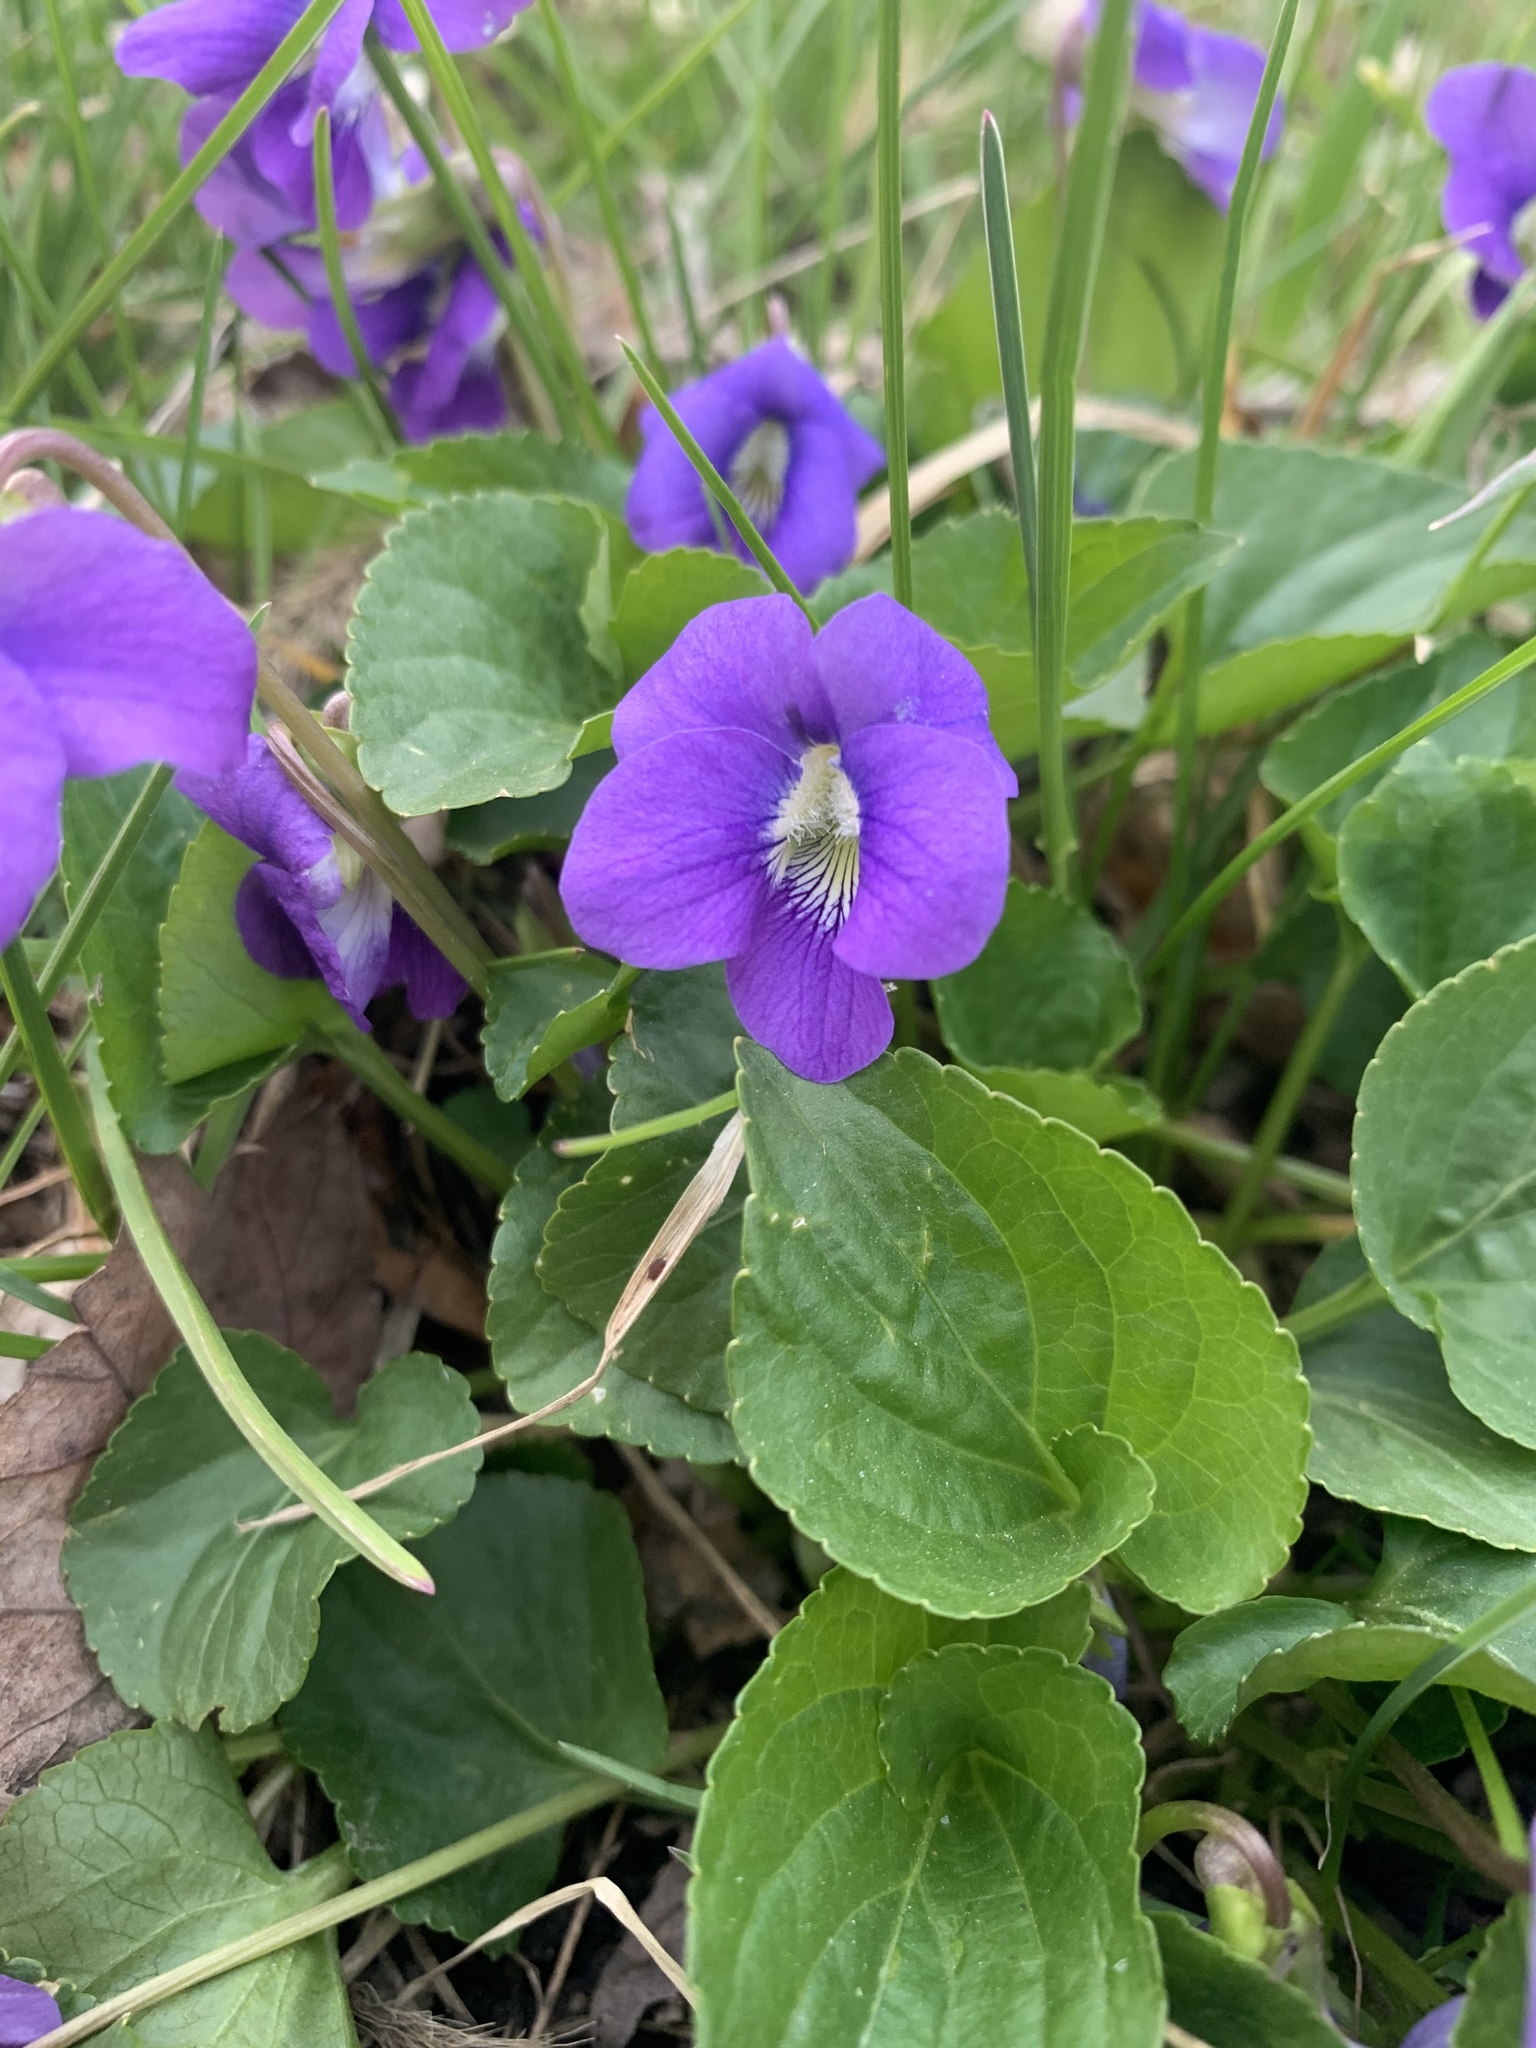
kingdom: Plantae
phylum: Tracheophyta
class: Magnoliopsida
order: Malpighiales
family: Violaceae
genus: Viola
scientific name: Viola sororia
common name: Dooryard violet
